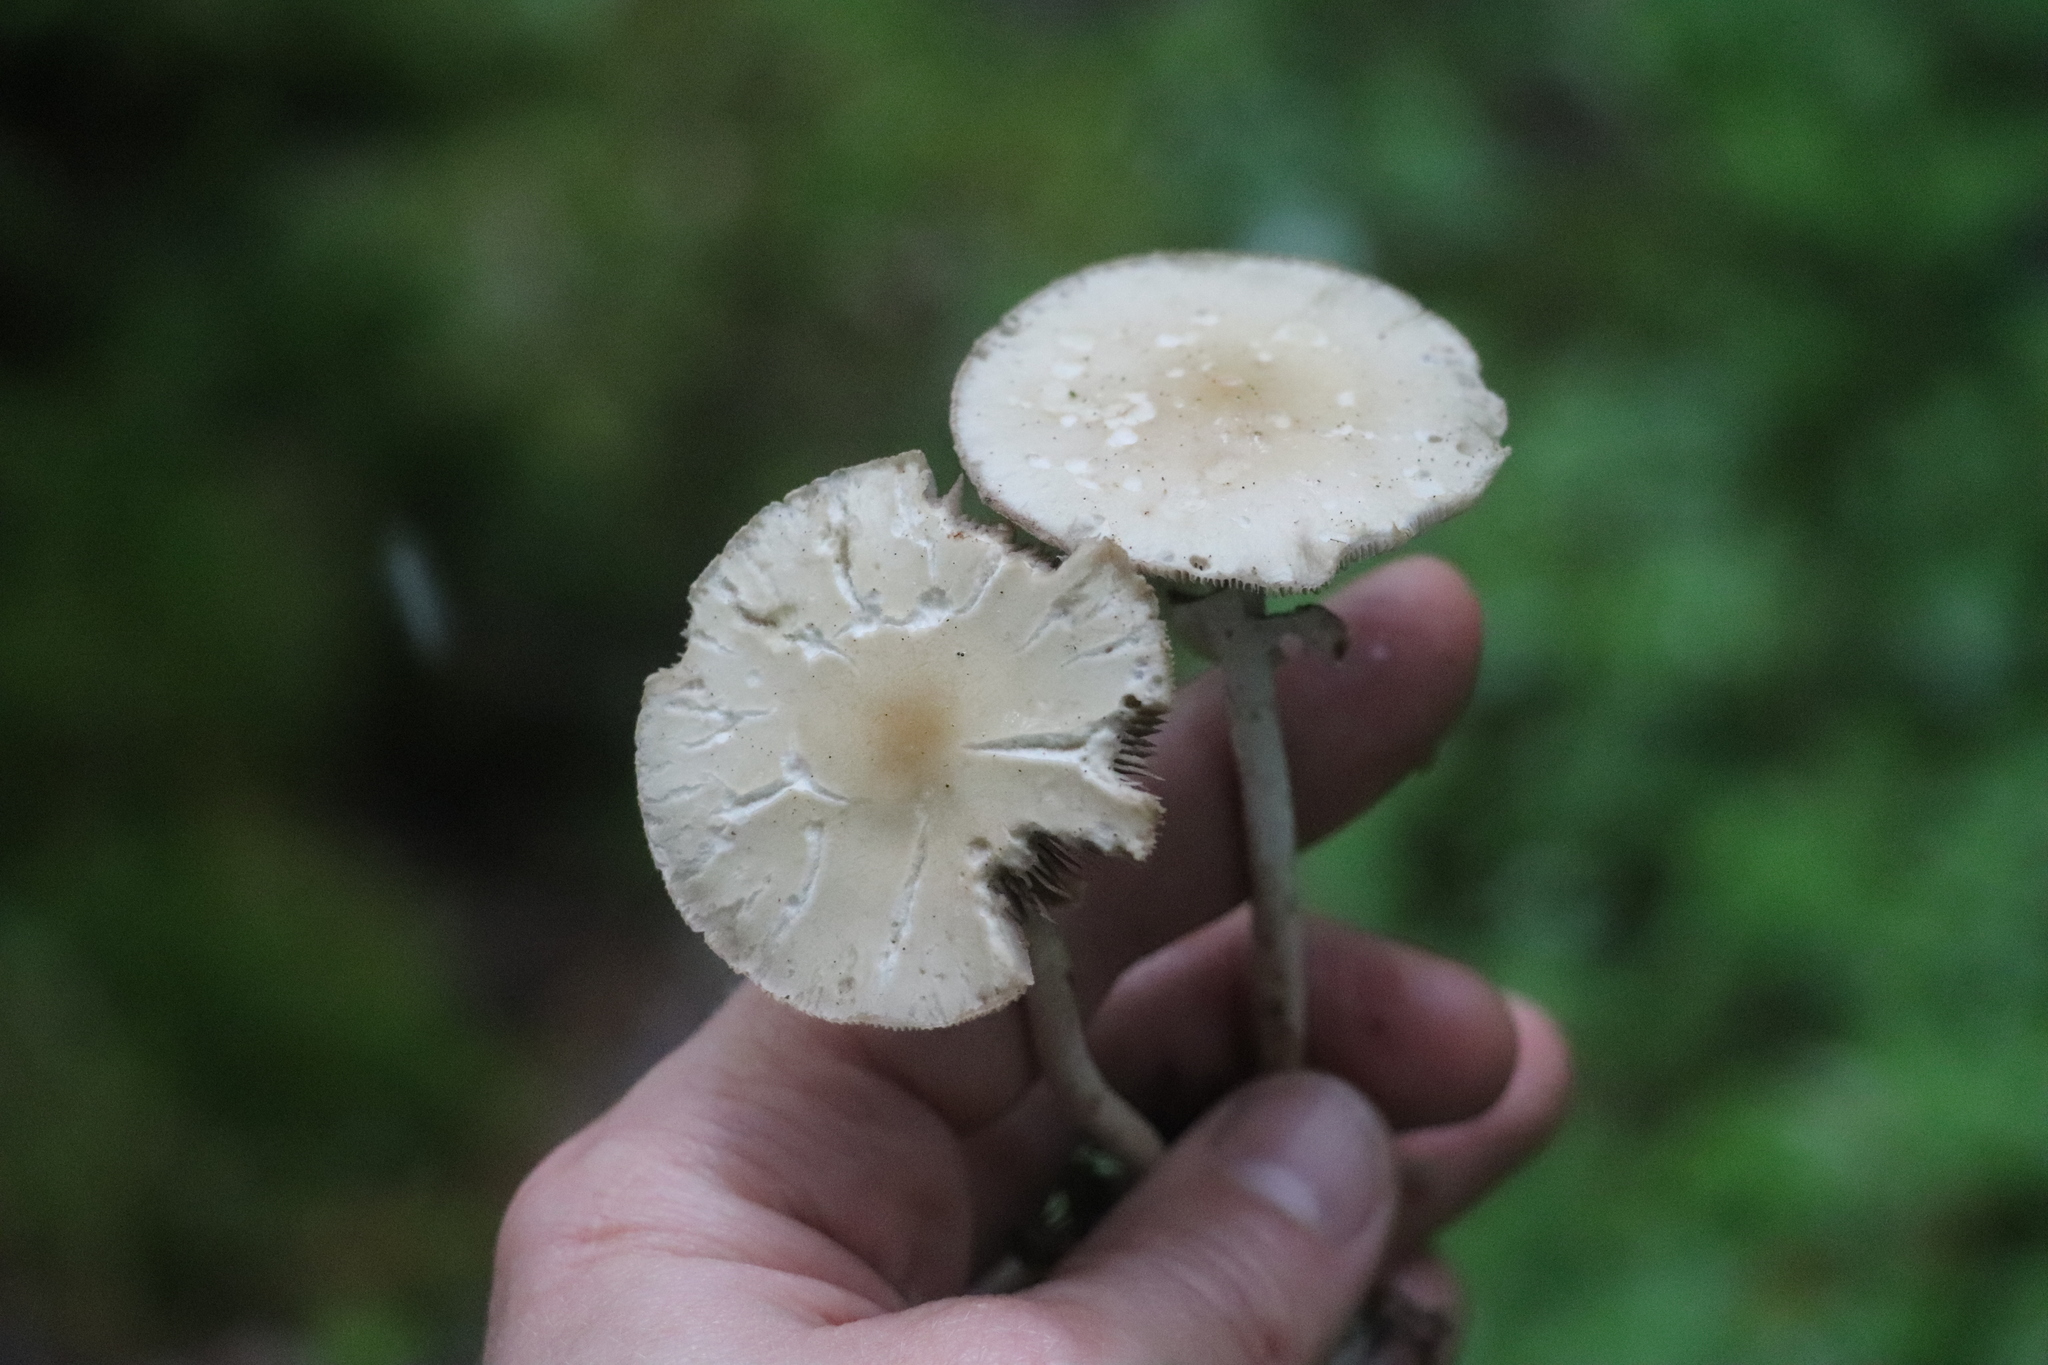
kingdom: Fungi
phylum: Basidiomycota
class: Agaricomycetes
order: Agaricales
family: Strophariaceae
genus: Agrocybe
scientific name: Agrocybe praecox
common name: Spring fieldcap
